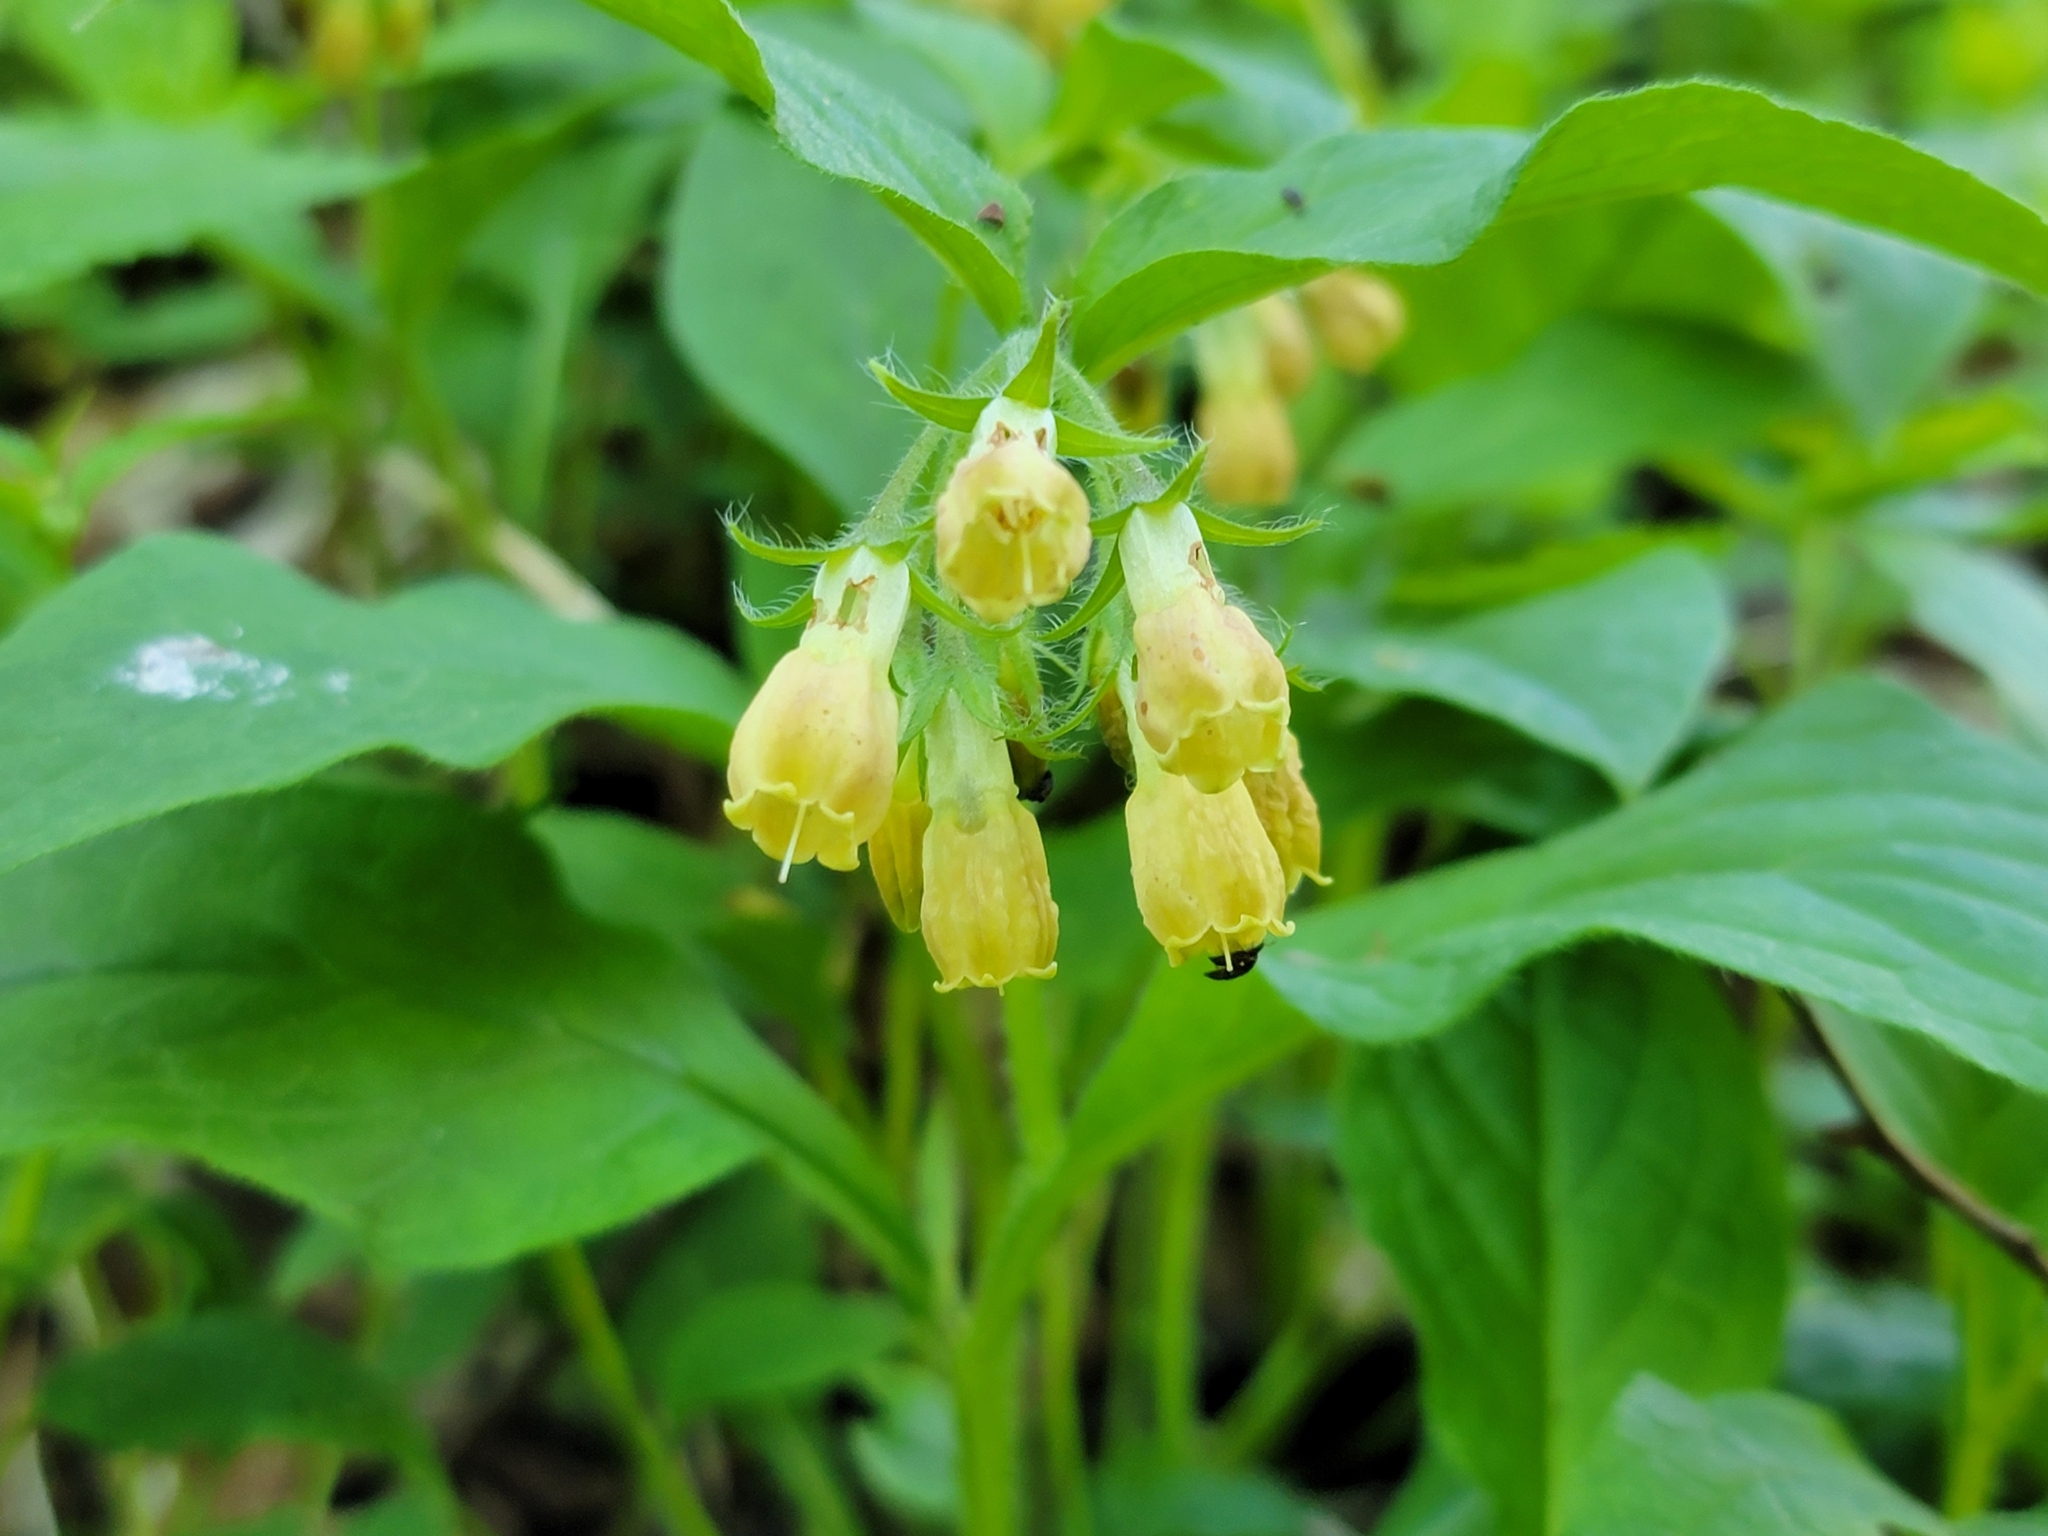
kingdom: Plantae
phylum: Tracheophyta
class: Magnoliopsida
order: Boraginales
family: Boraginaceae
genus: Symphytum
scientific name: Symphytum tuberosum
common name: Tuberous comfrey
